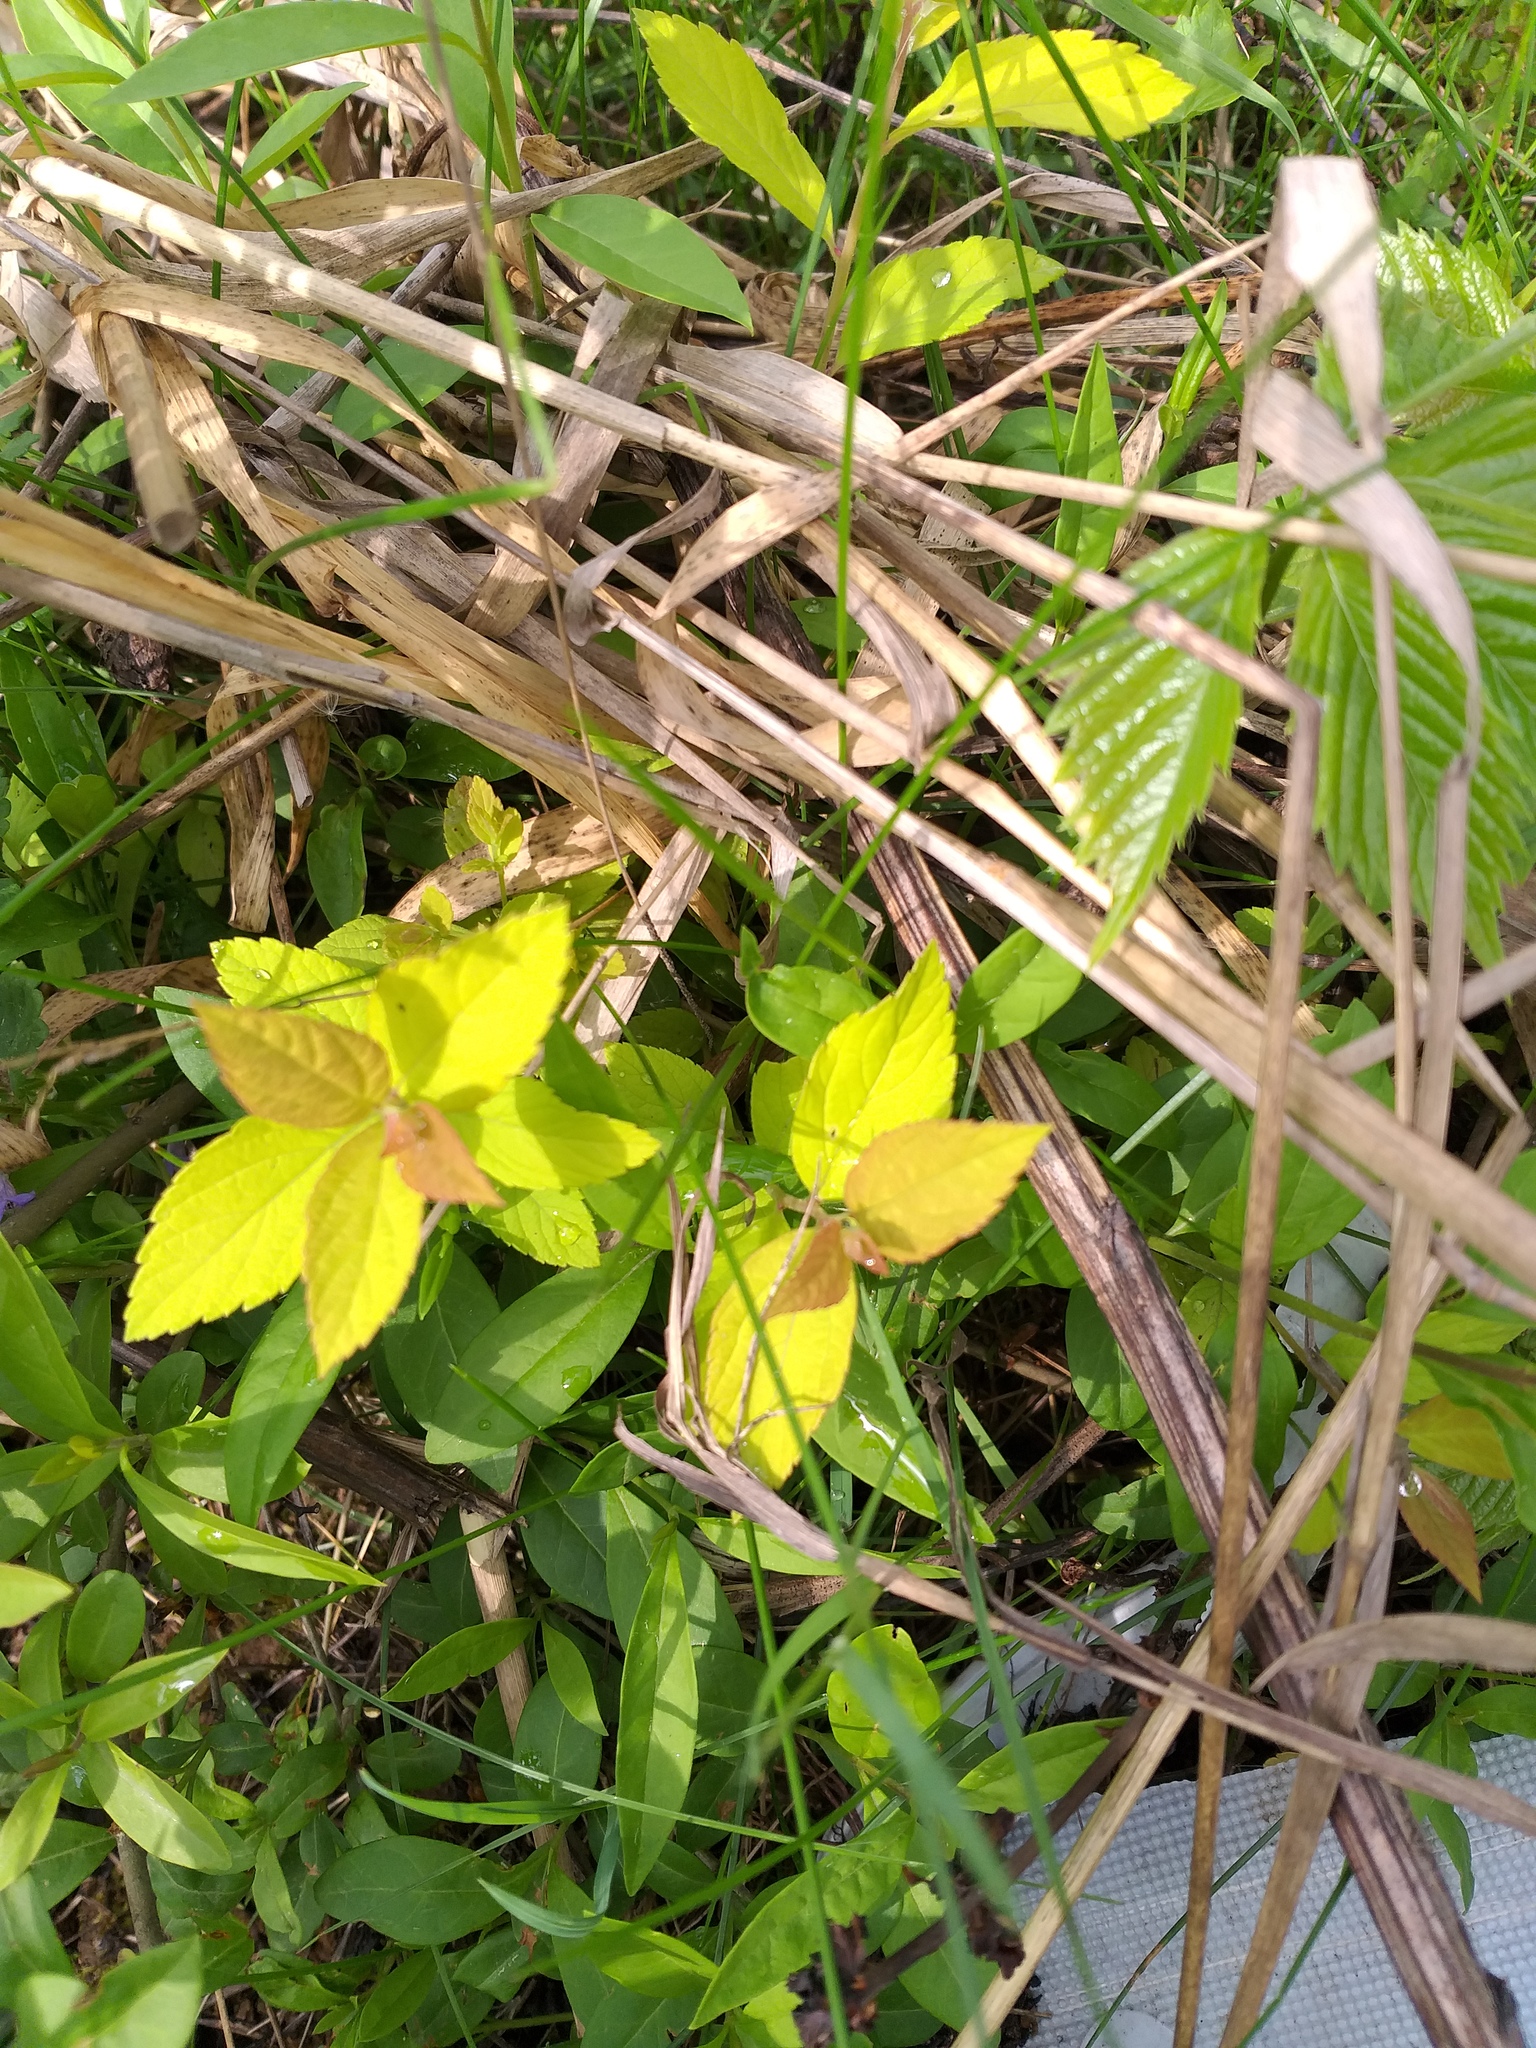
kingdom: Plantae
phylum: Tracheophyta
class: Magnoliopsida
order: Rosales
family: Rosaceae
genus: Spiraea
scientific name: Spiraea japonica
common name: Japanese spiraea
